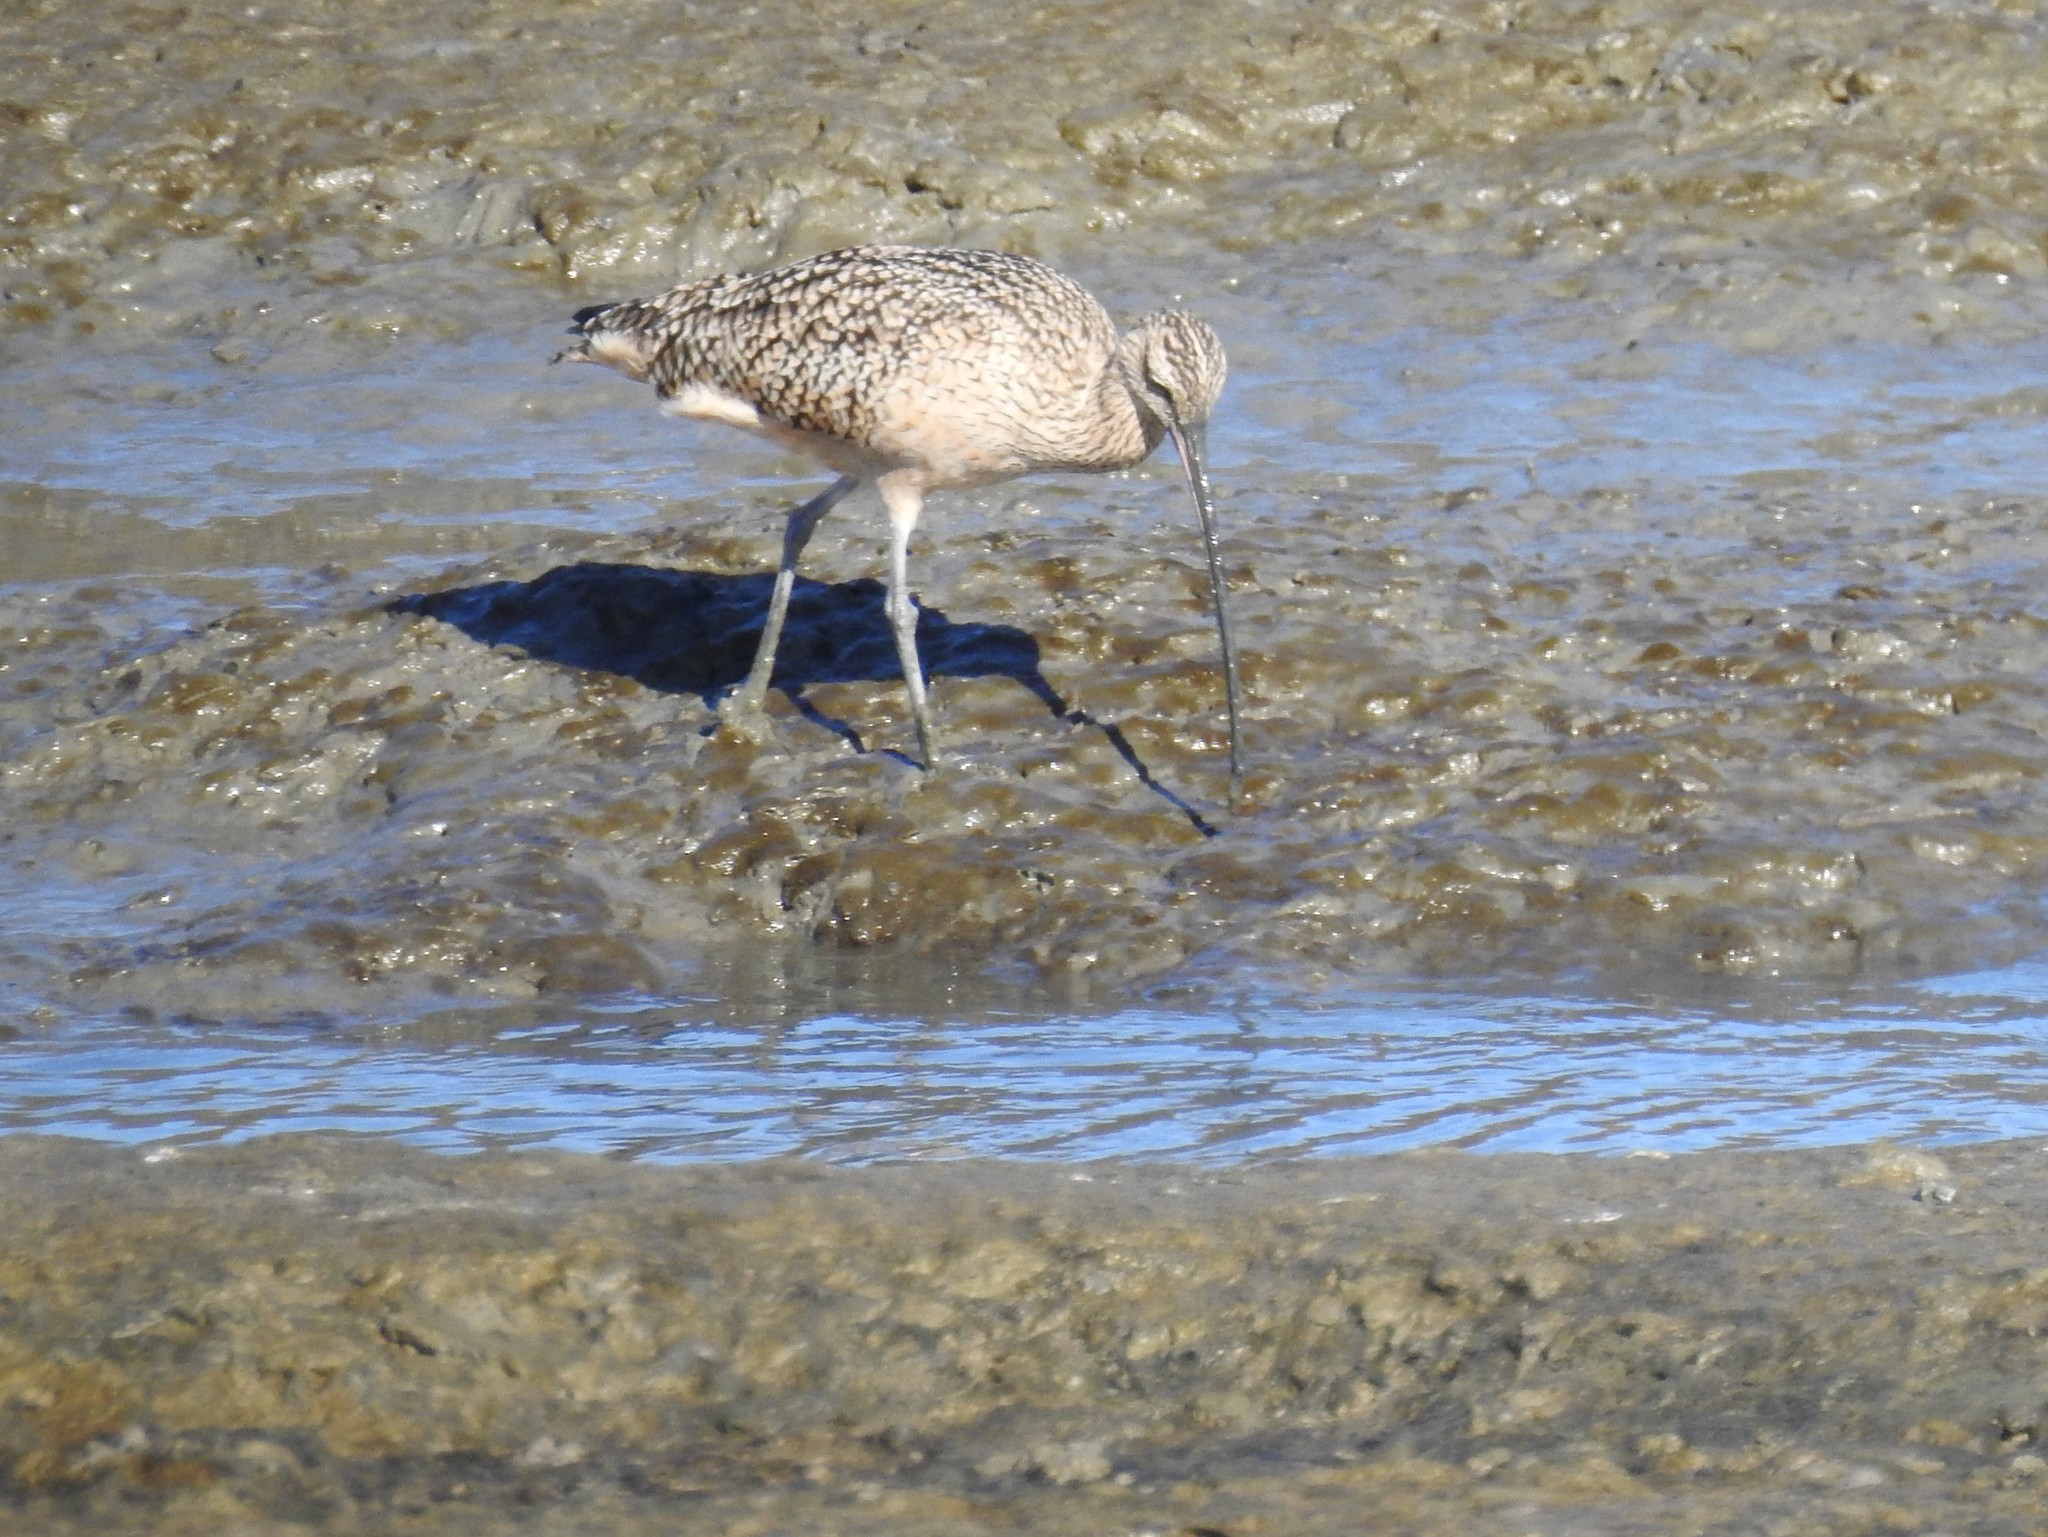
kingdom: Animalia
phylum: Chordata
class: Aves
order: Charadriiformes
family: Scolopacidae
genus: Numenius
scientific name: Numenius americanus
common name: Long-billed curlew
